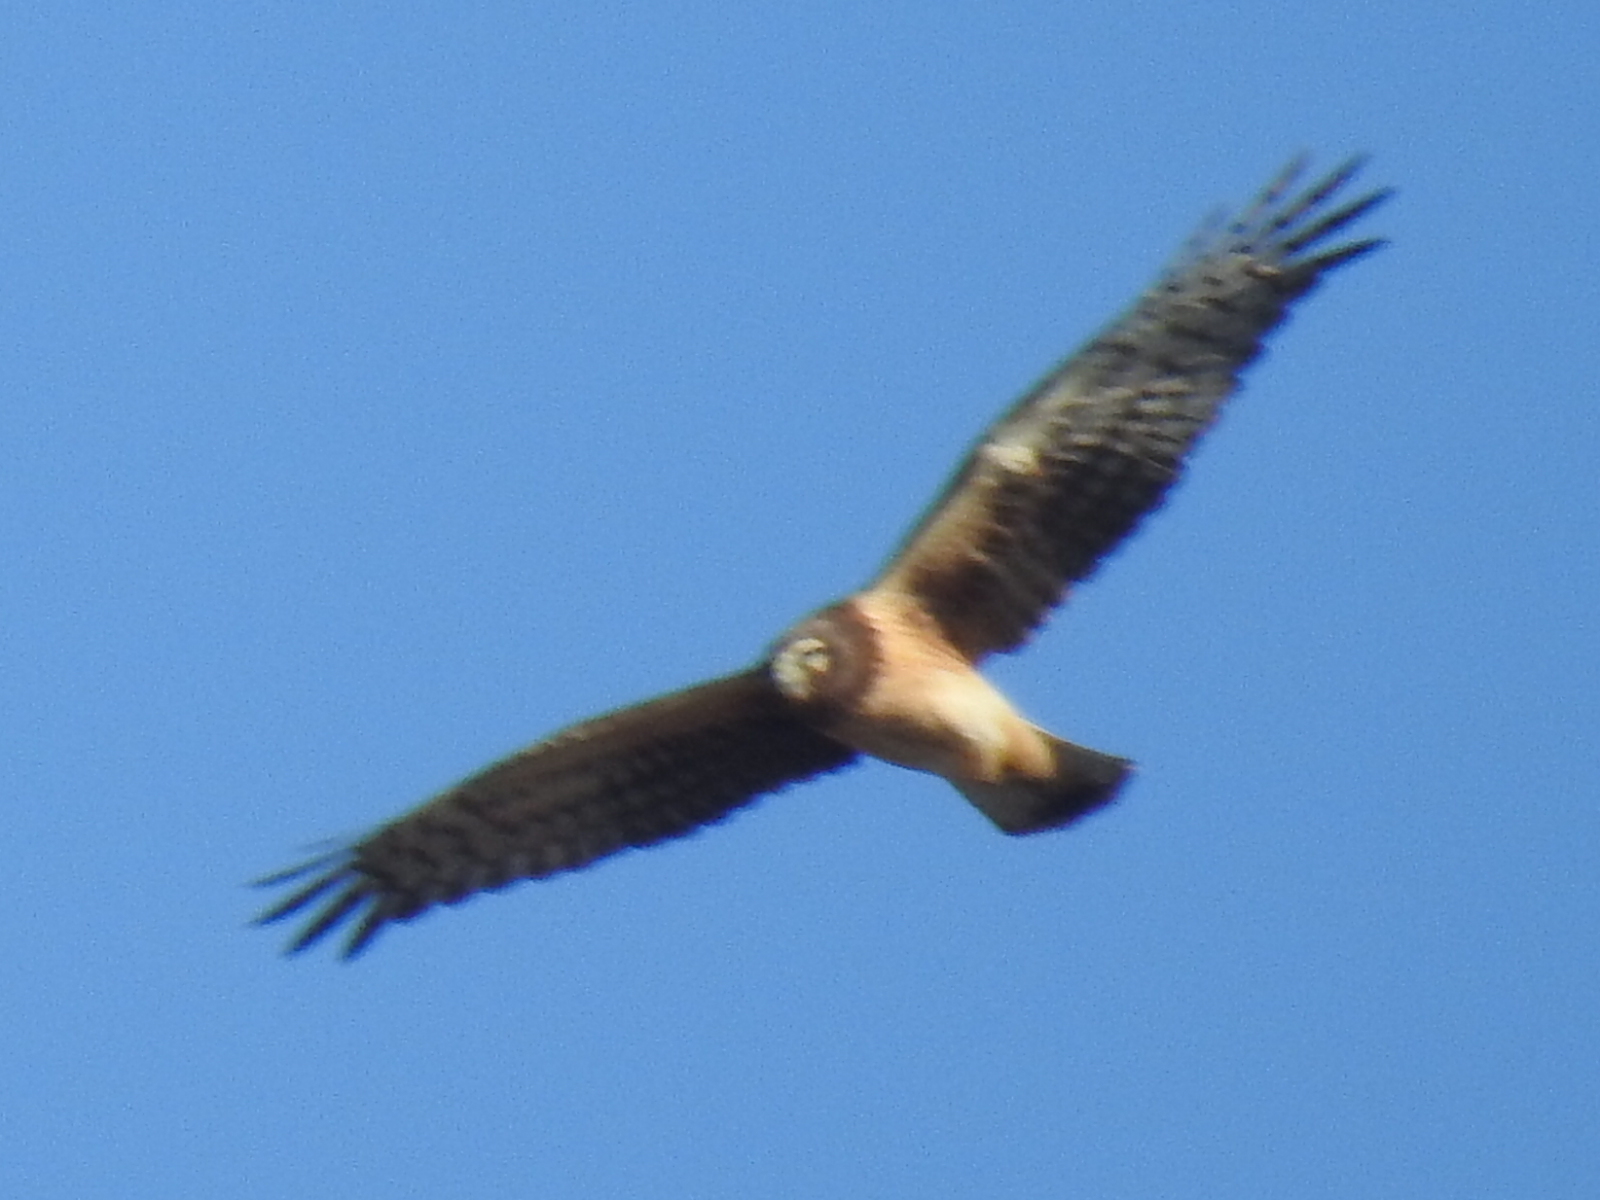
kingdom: Animalia
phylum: Chordata
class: Aves
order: Accipitriformes
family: Accipitridae
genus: Circus
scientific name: Circus cyaneus
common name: Hen harrier
